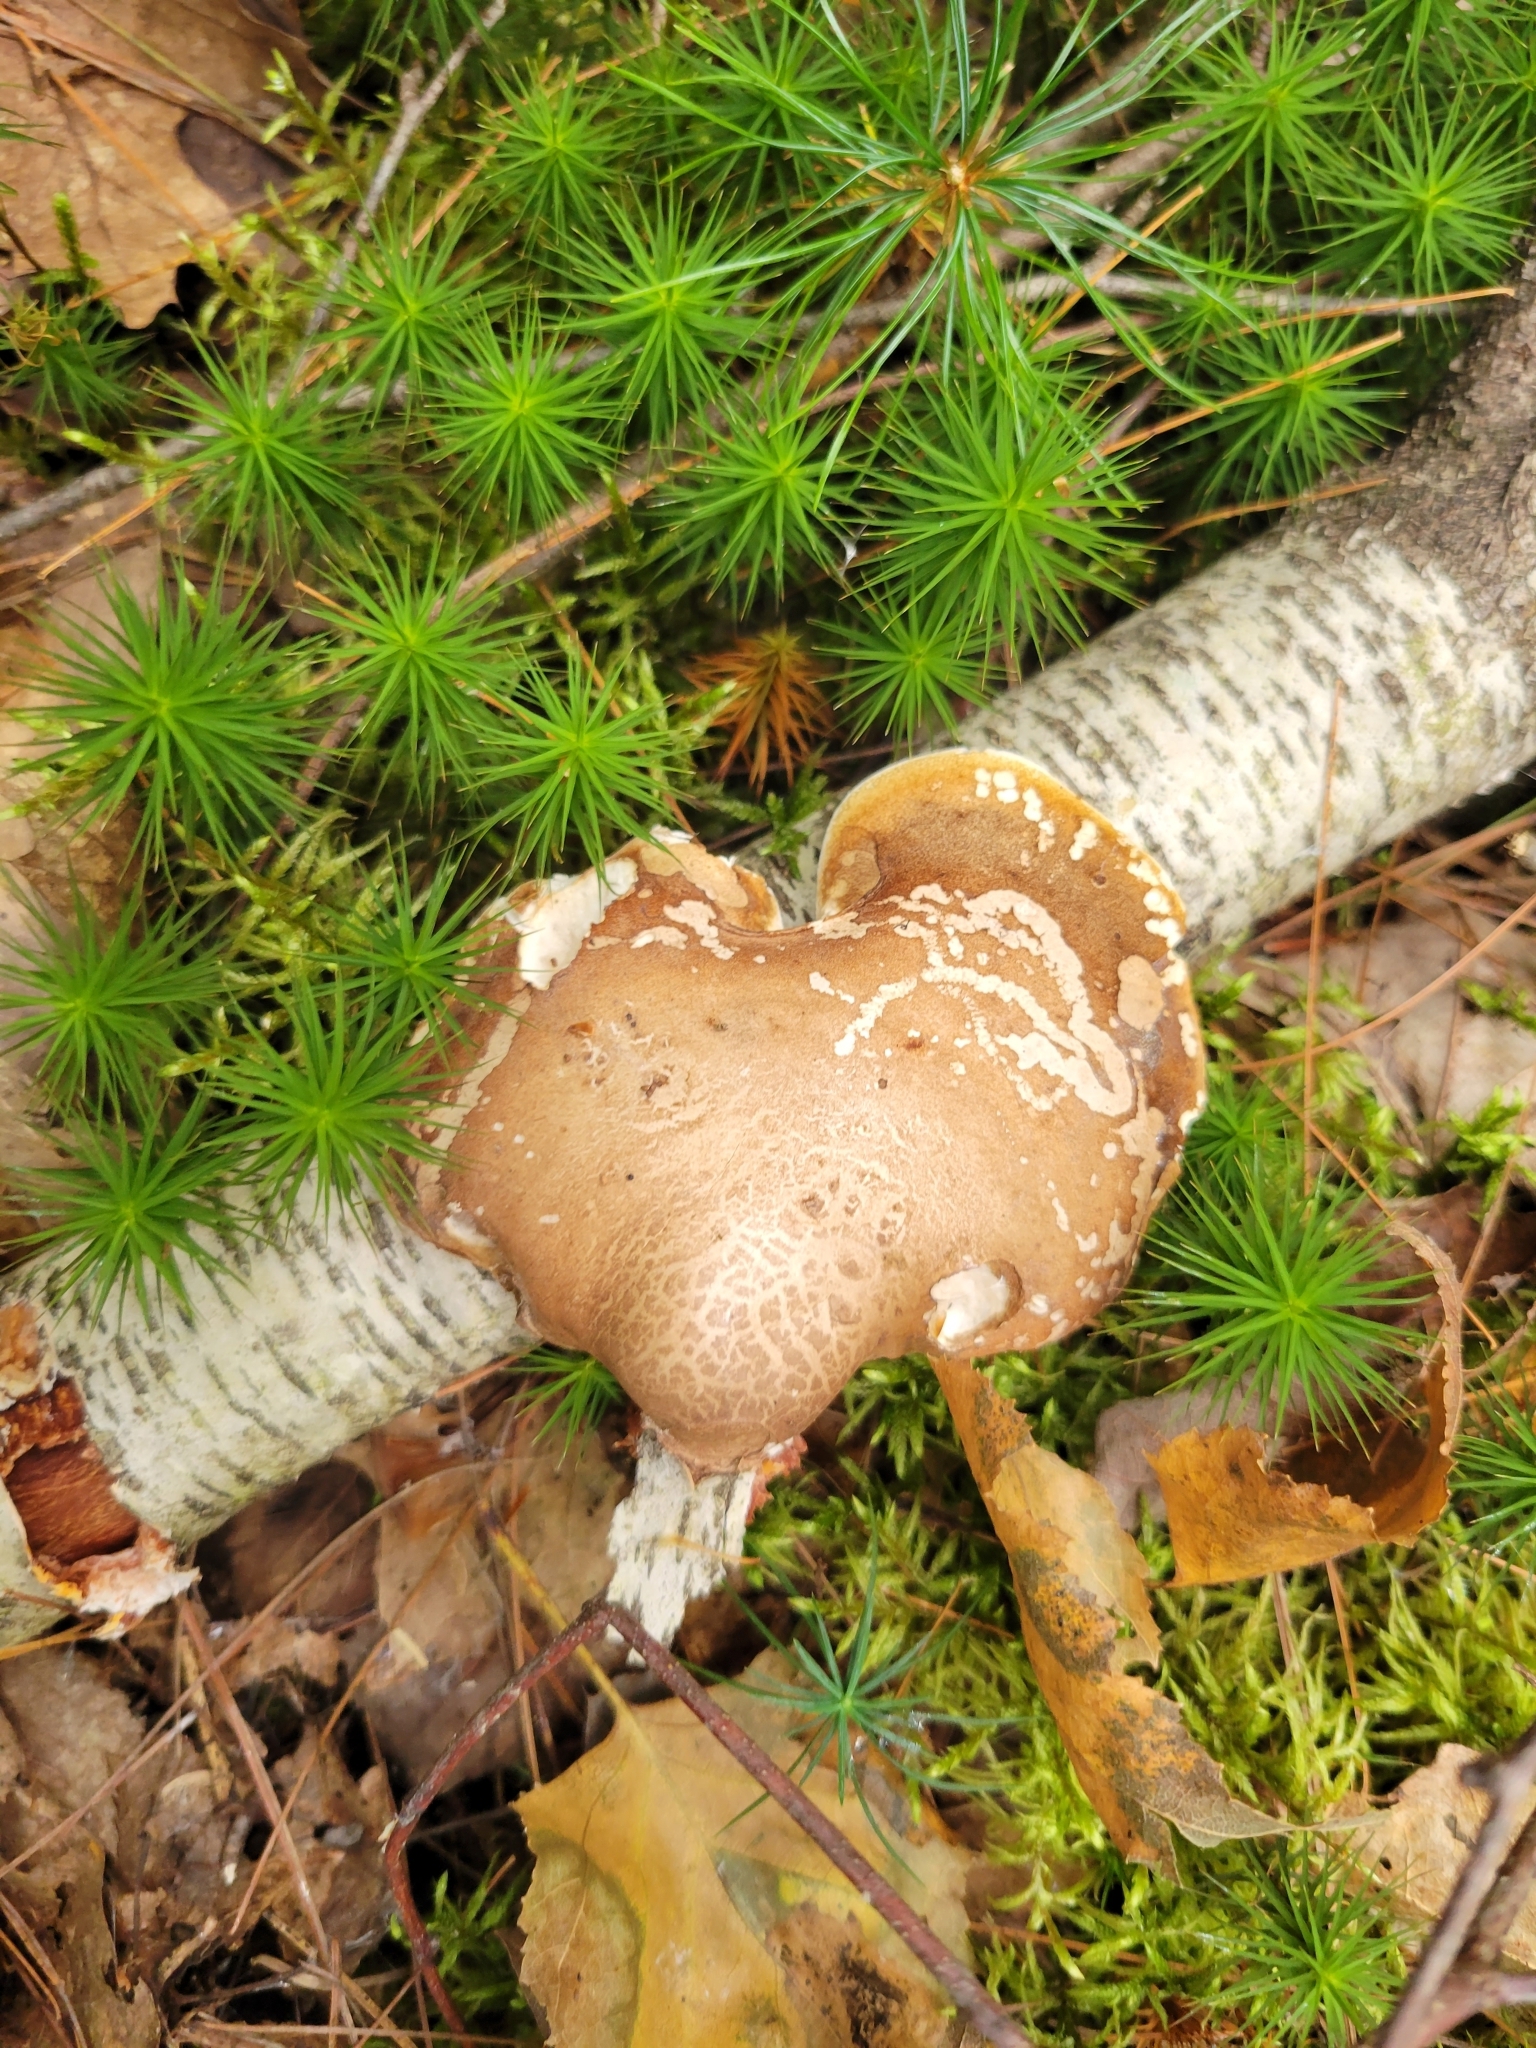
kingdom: Fungi
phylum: Basidiomycota
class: Agaricomycetes
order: Polyporales
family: Fomitopsidaceae
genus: Fomitopsis
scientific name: Fomitopsis betulina
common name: Birch polypore
